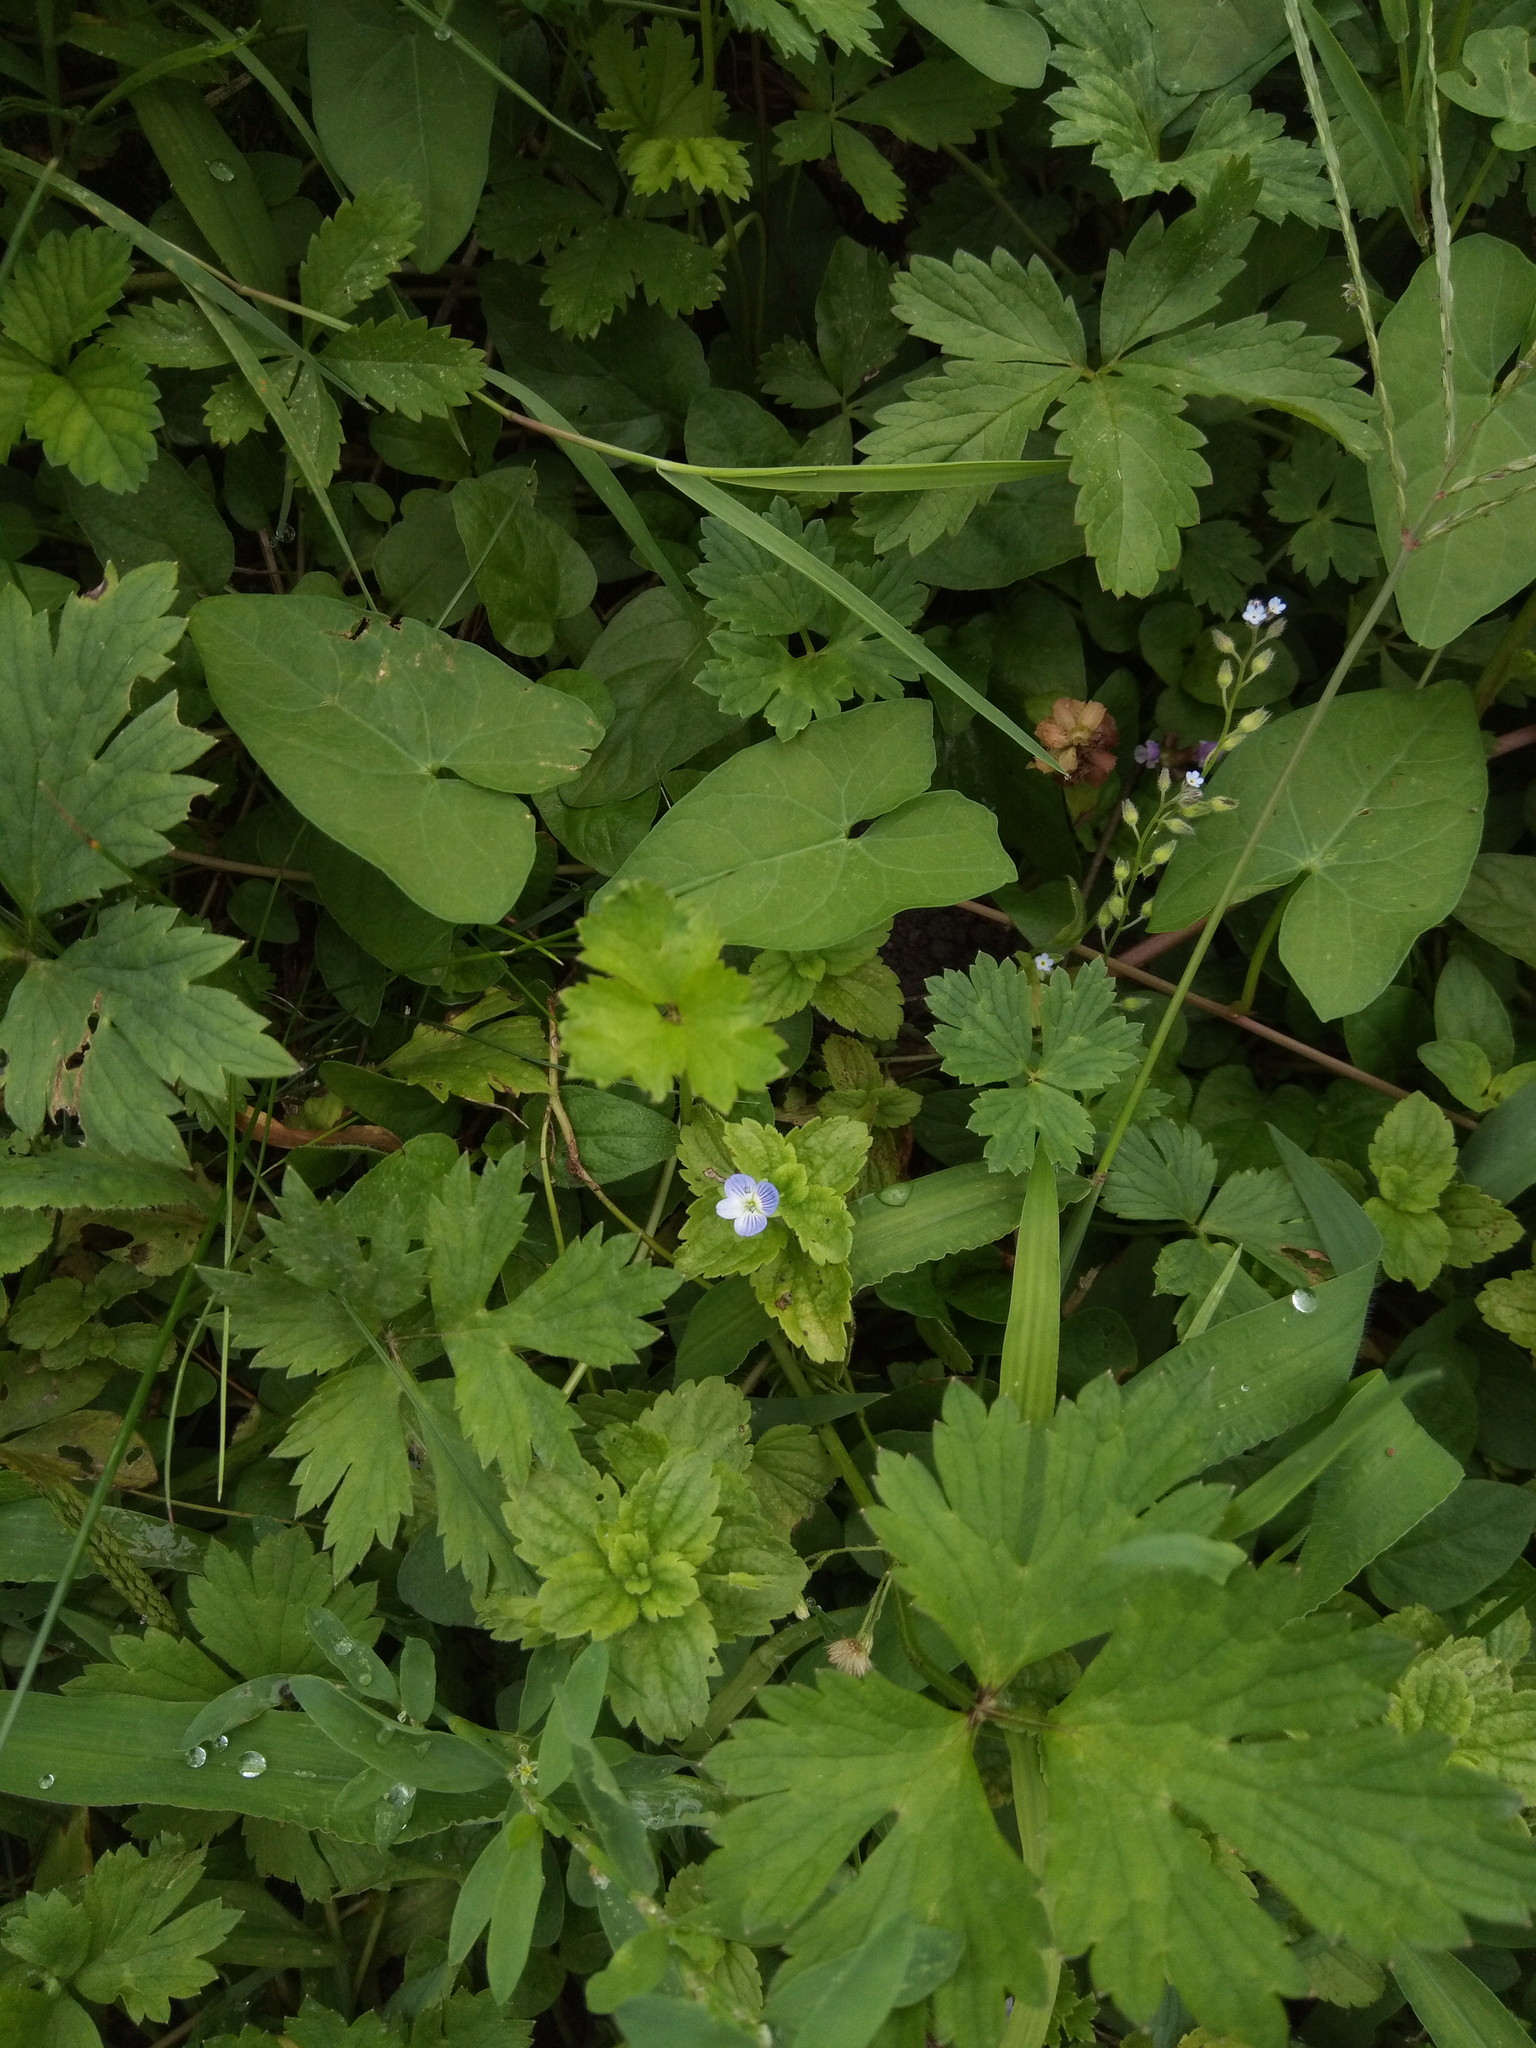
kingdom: Plantae
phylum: Tracheophyta
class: Magnoliopsida
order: Lamiales
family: Plantaginaceae
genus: Veronica
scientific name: Veronica persica
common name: Common field-speedwell
